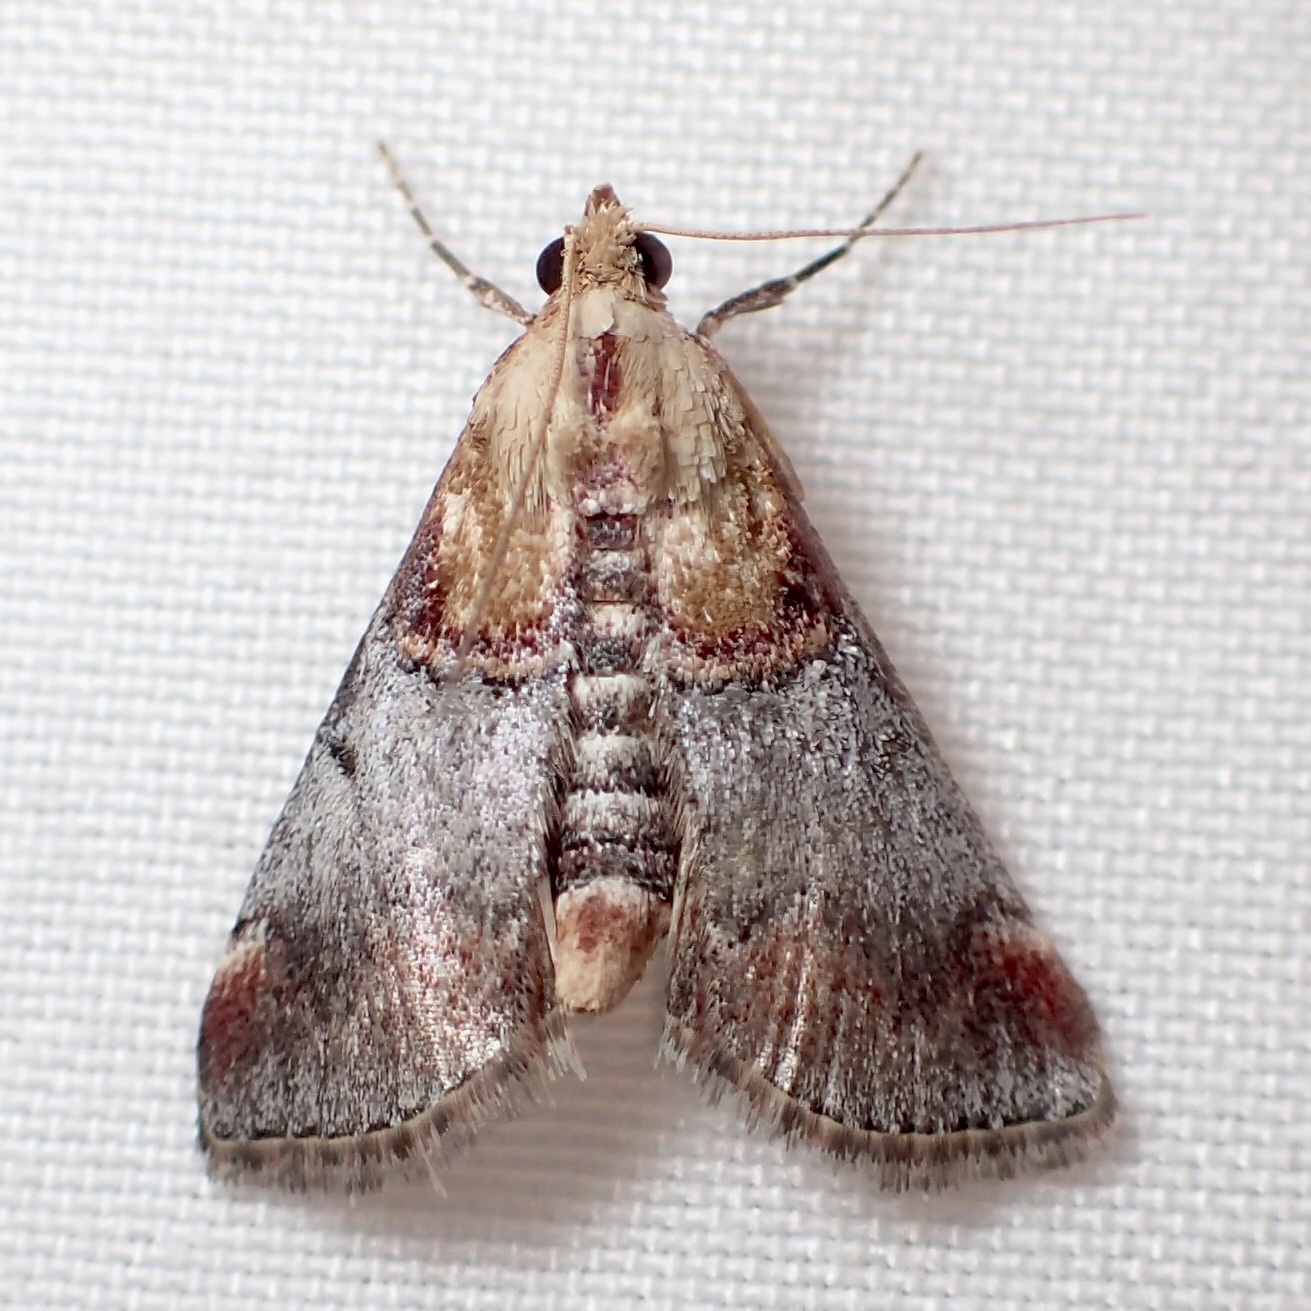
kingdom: Animalia
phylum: Arthropoda
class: Insecta
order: Lepidoptera
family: Pyralidae
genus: Cacozelia
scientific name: Cacozelia basiochrealis
